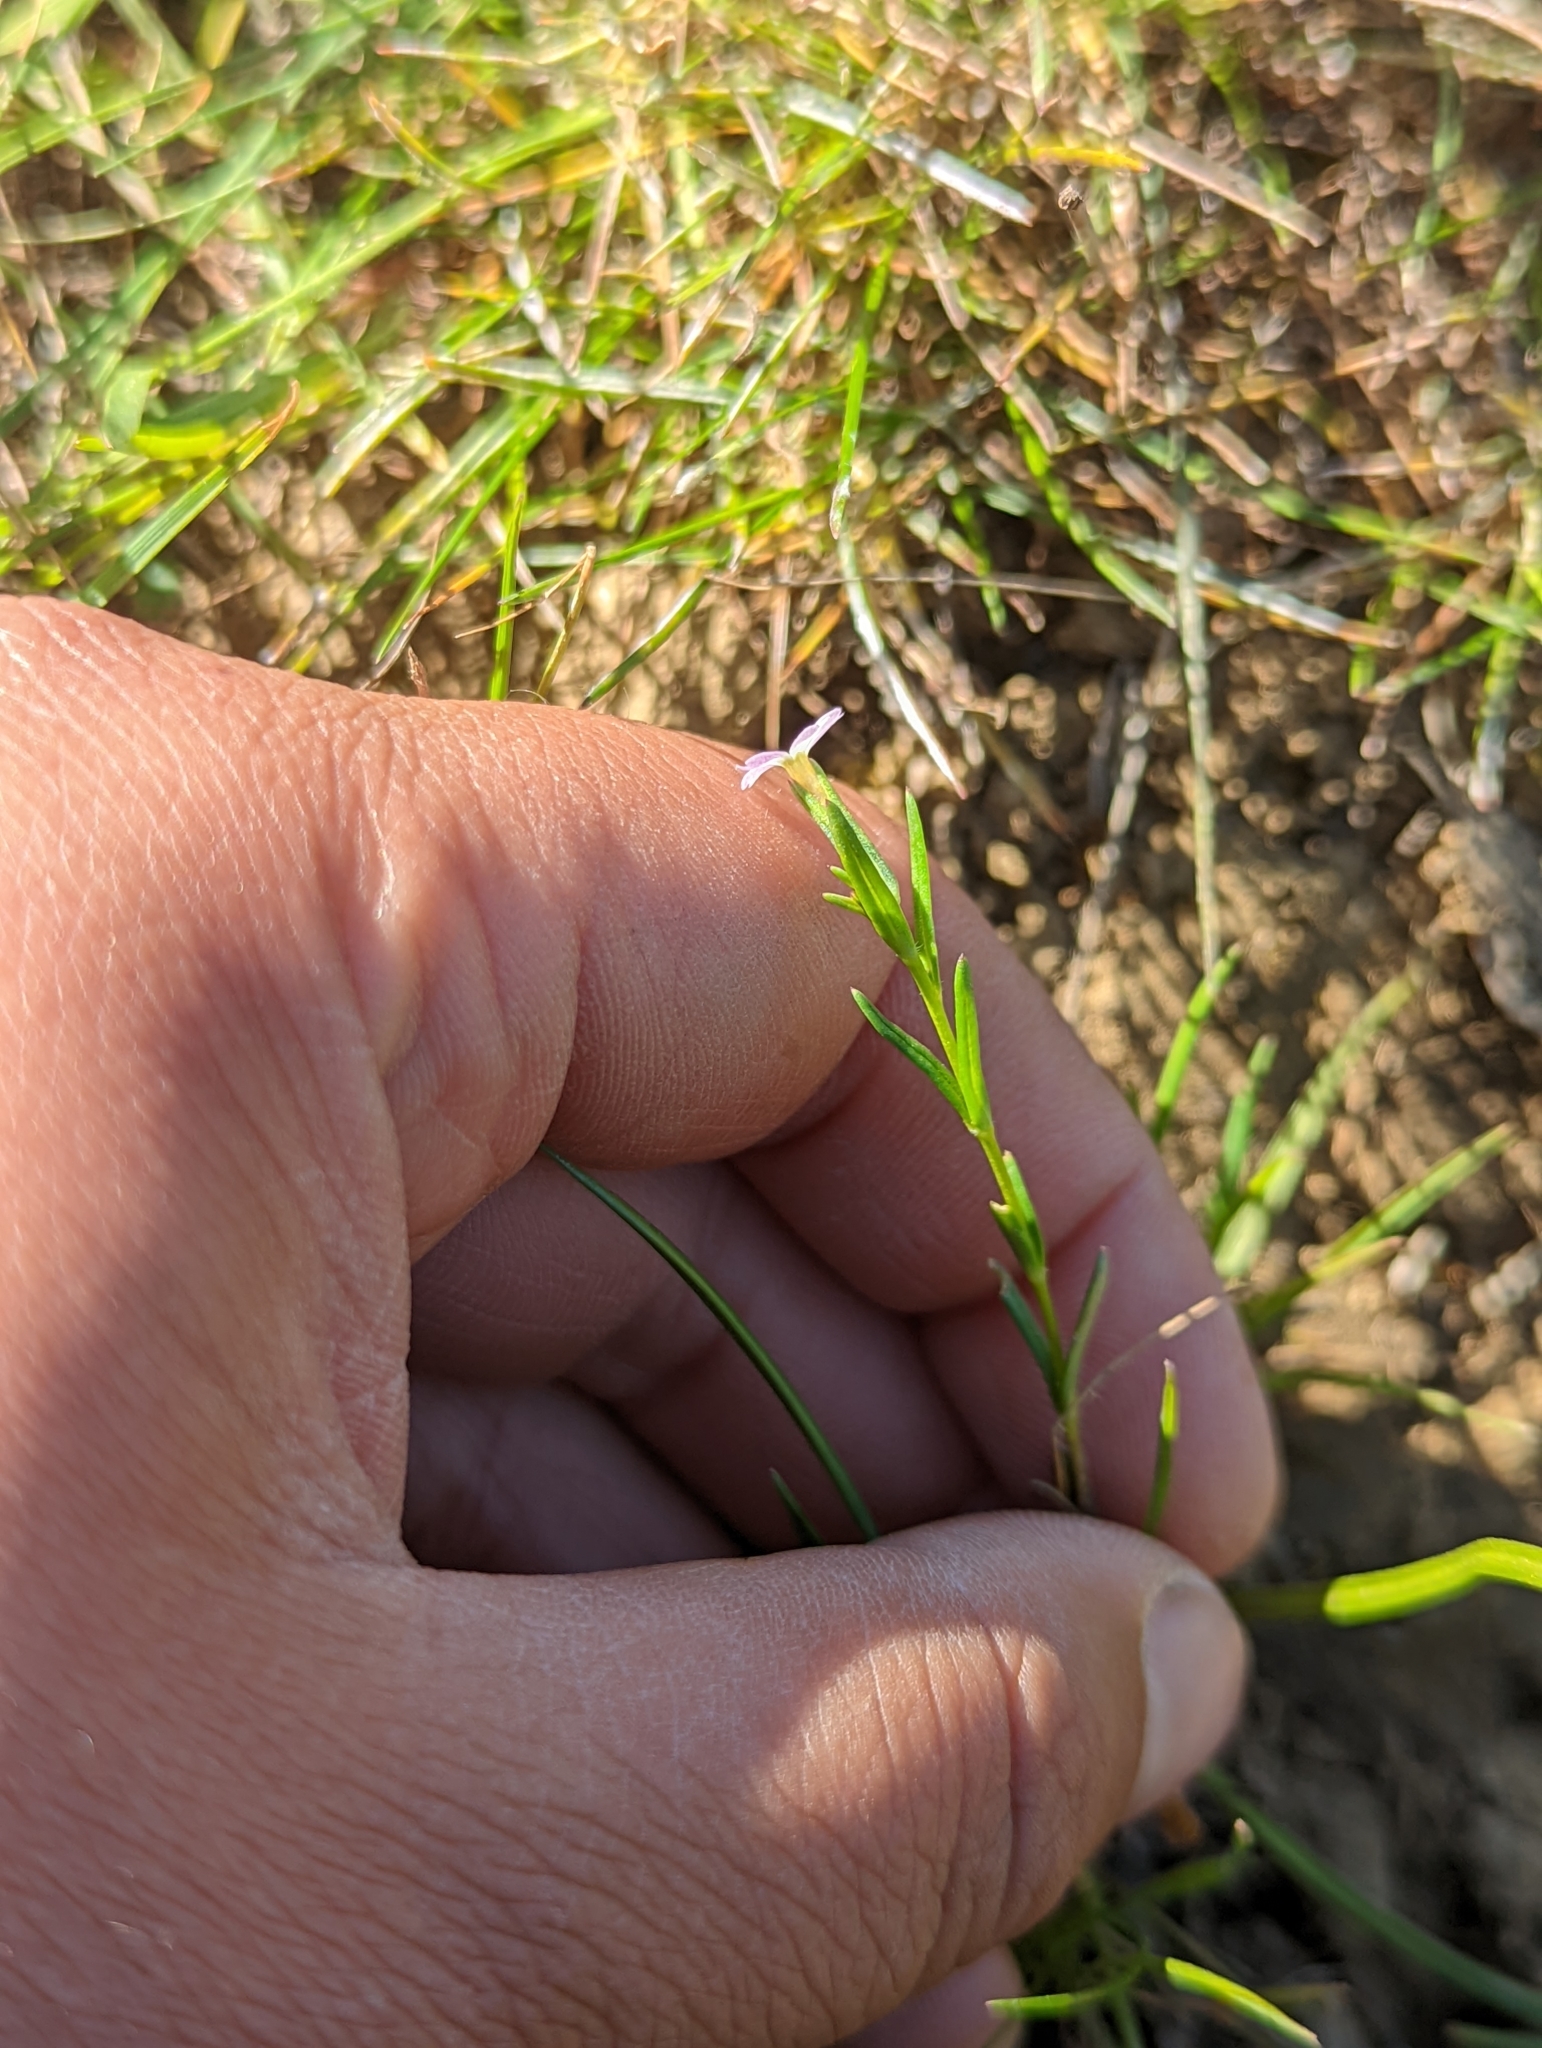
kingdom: Plantae
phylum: Tracheophyta
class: Magnoliopsida
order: Ericales
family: Polemoniaceae
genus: Phlox
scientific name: Phlox gracilis
